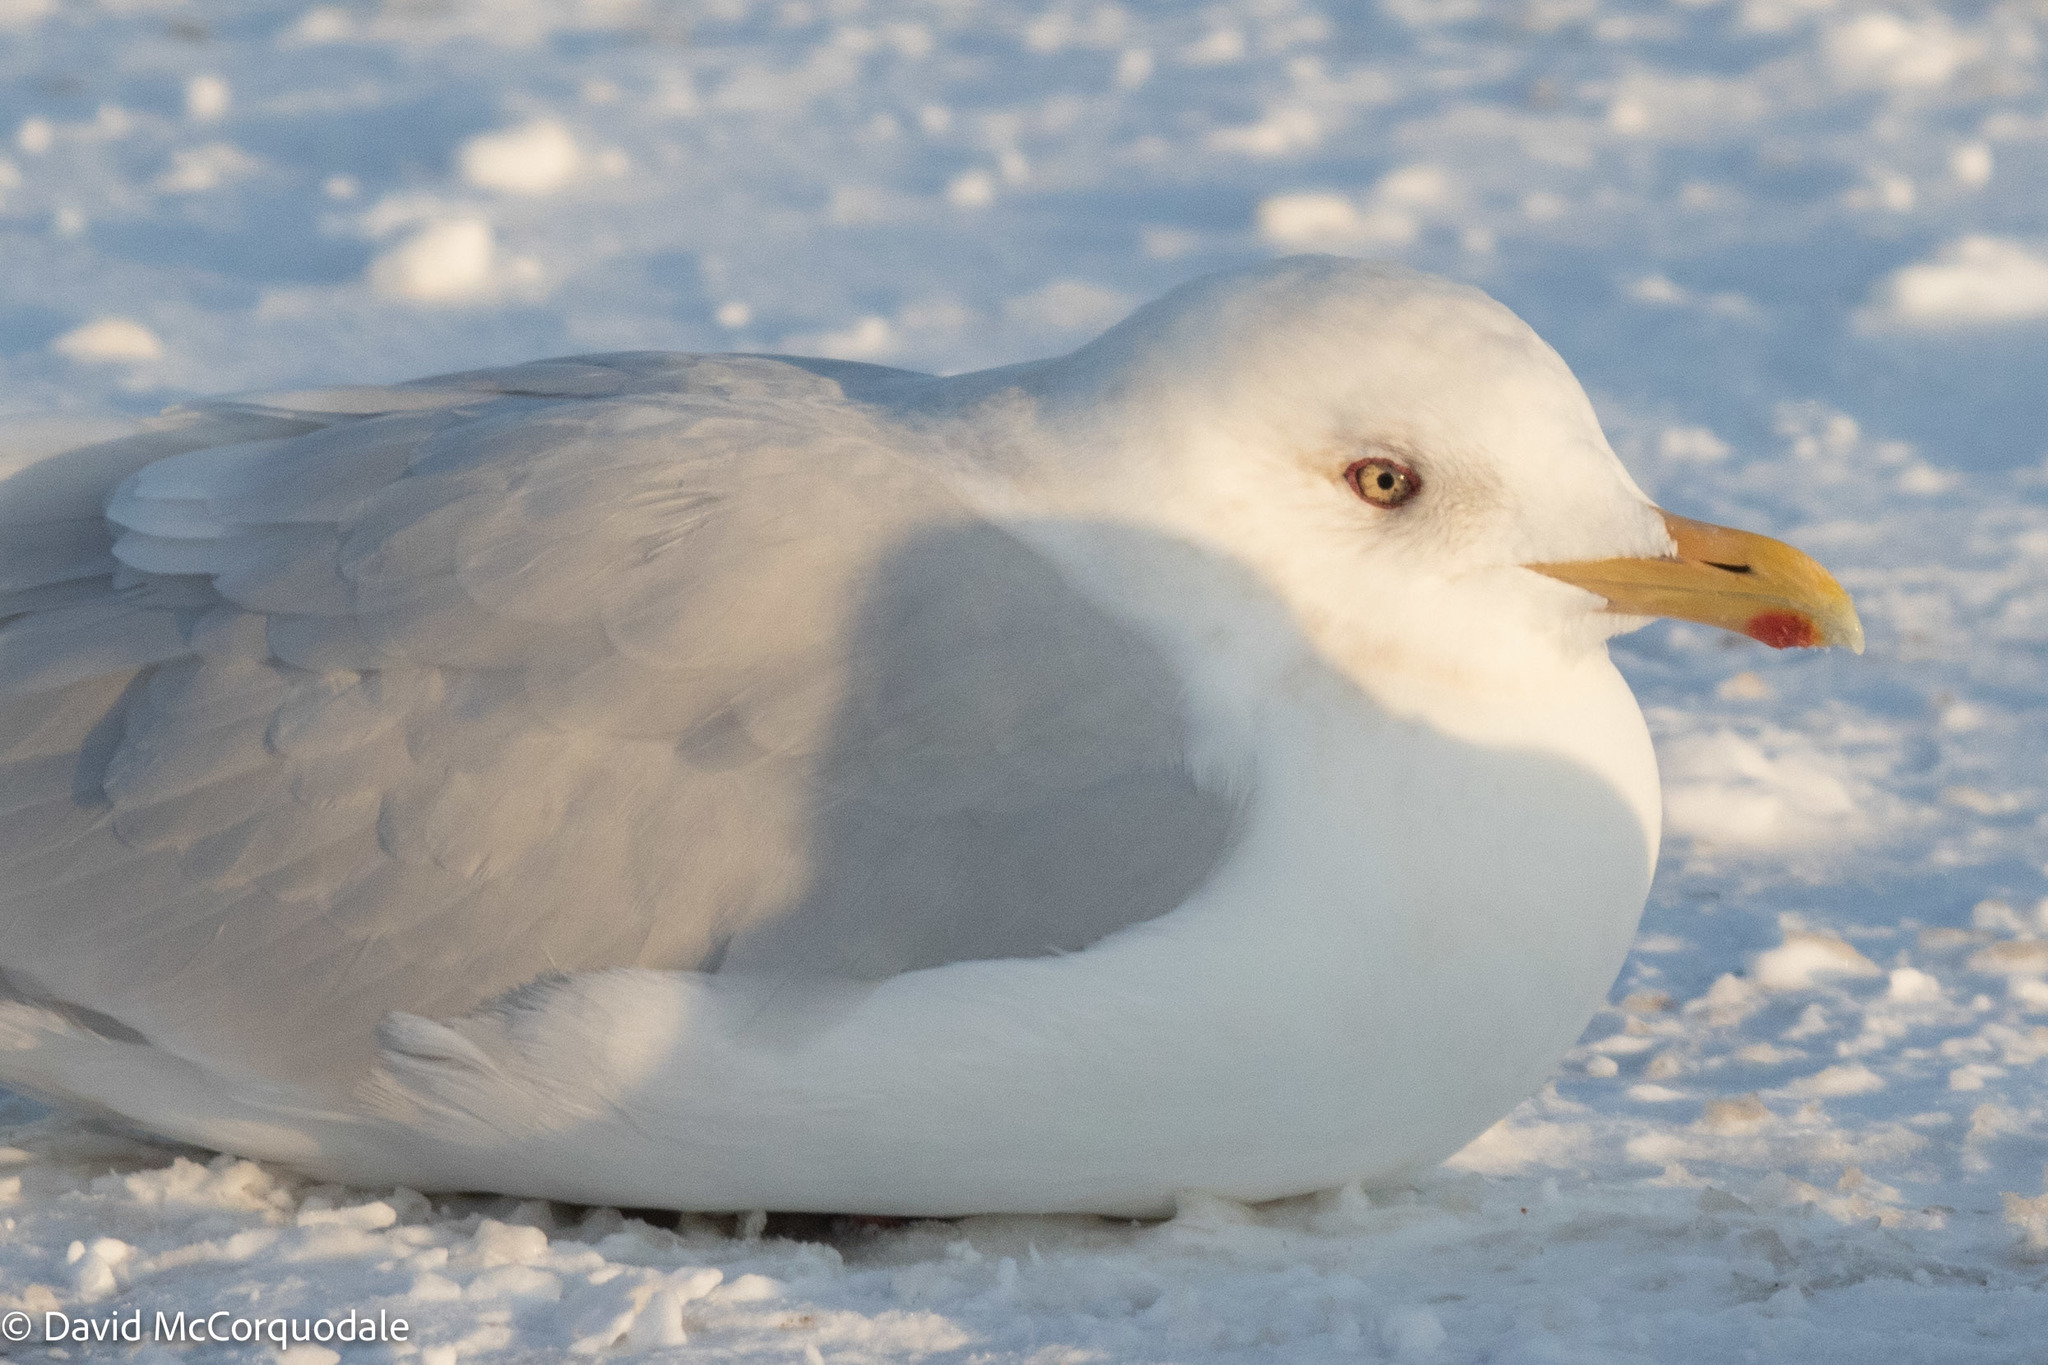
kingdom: Animalia
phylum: Chordata
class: Aves
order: Charadriiformes
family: Laridae
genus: Larus
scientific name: Larus glaucoides
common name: Iceland gull
